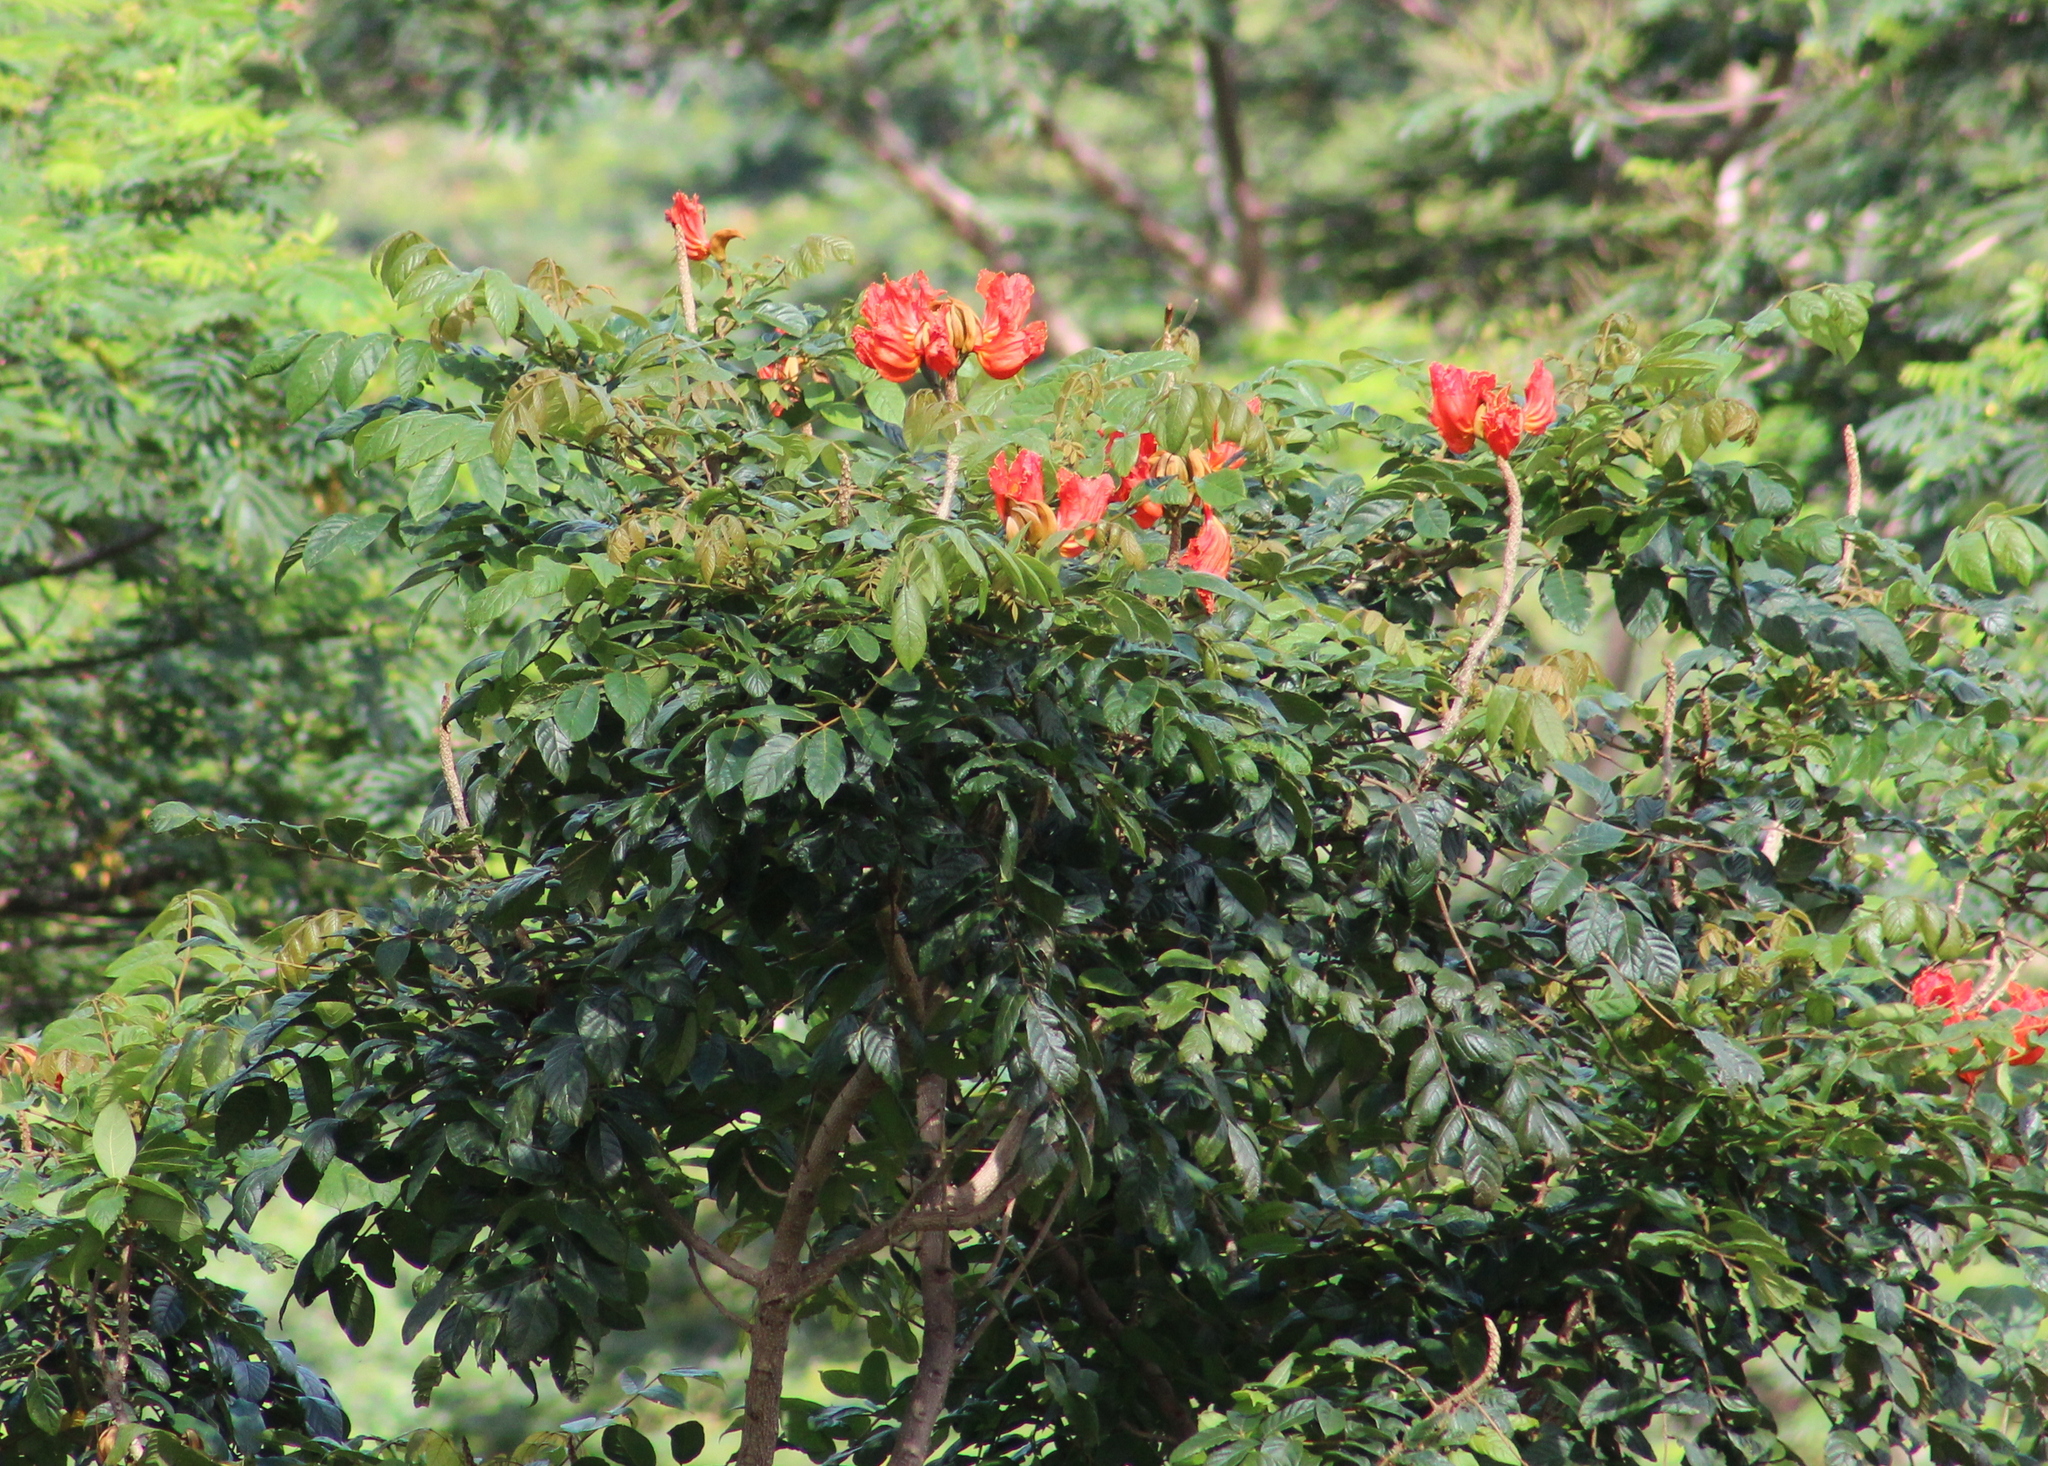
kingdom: Plantae
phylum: Tracheophyta
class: Magnoliopsida
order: Lamiales
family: Bignoniaceae
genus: Spathodea
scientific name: Spathodea campanulata
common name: African tuliptree
